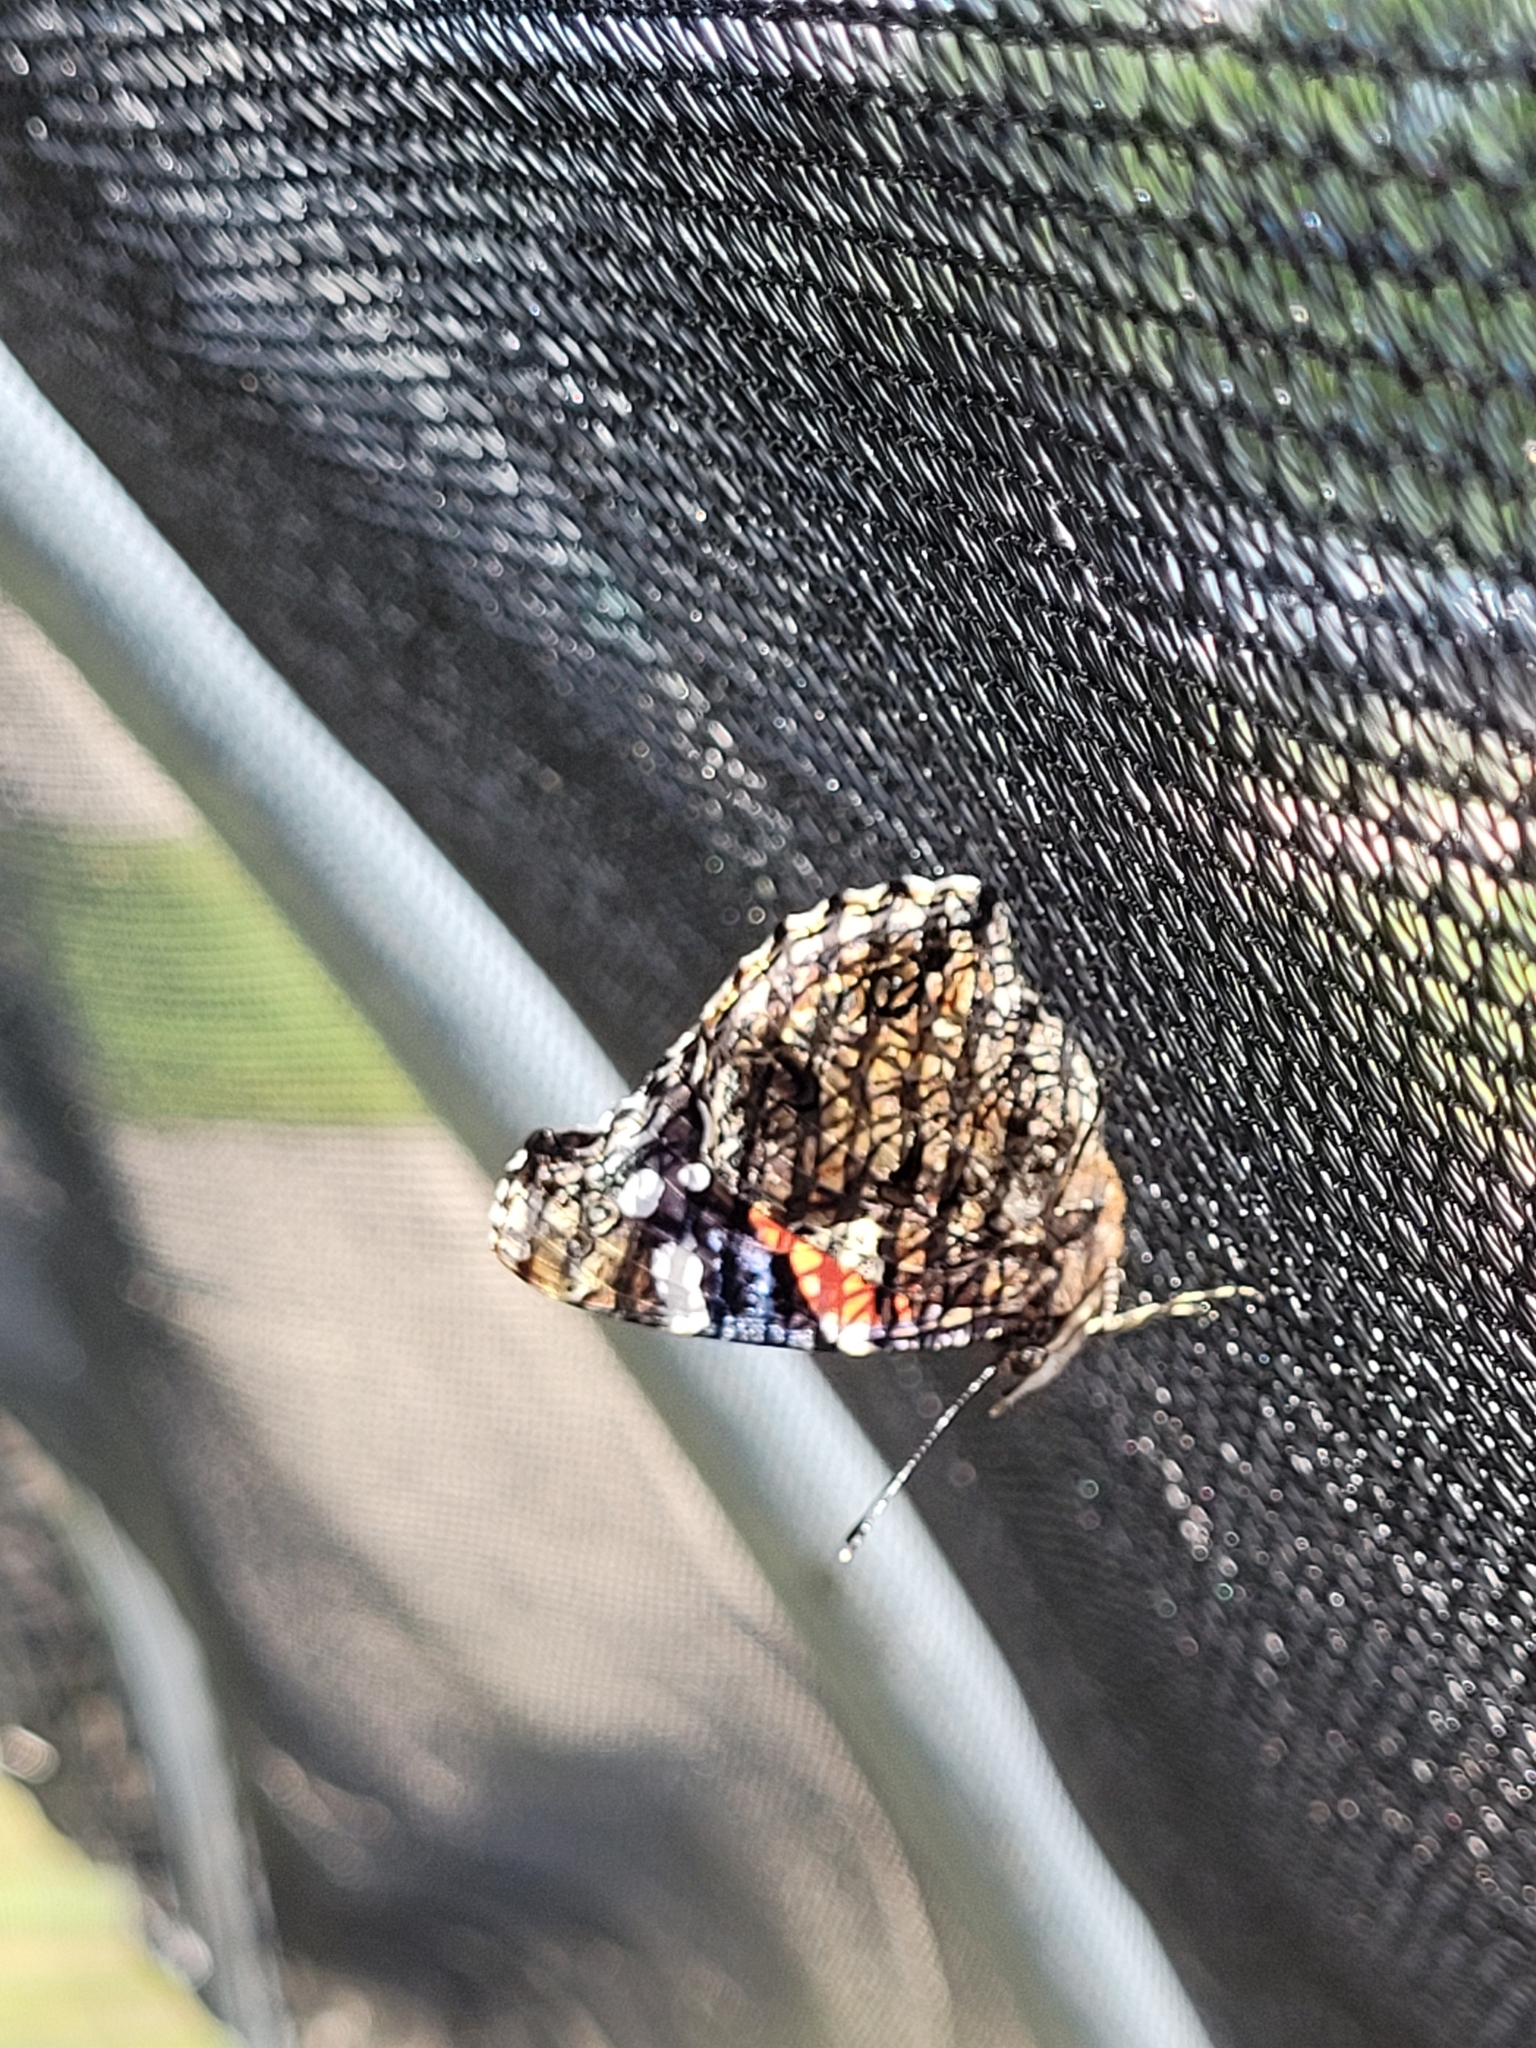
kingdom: Animalia
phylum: Arthropoda
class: Insecta
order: Lepidoptera
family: Nymphalidae
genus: Vanessa
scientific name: Vanessa atalanta
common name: Red admiral
